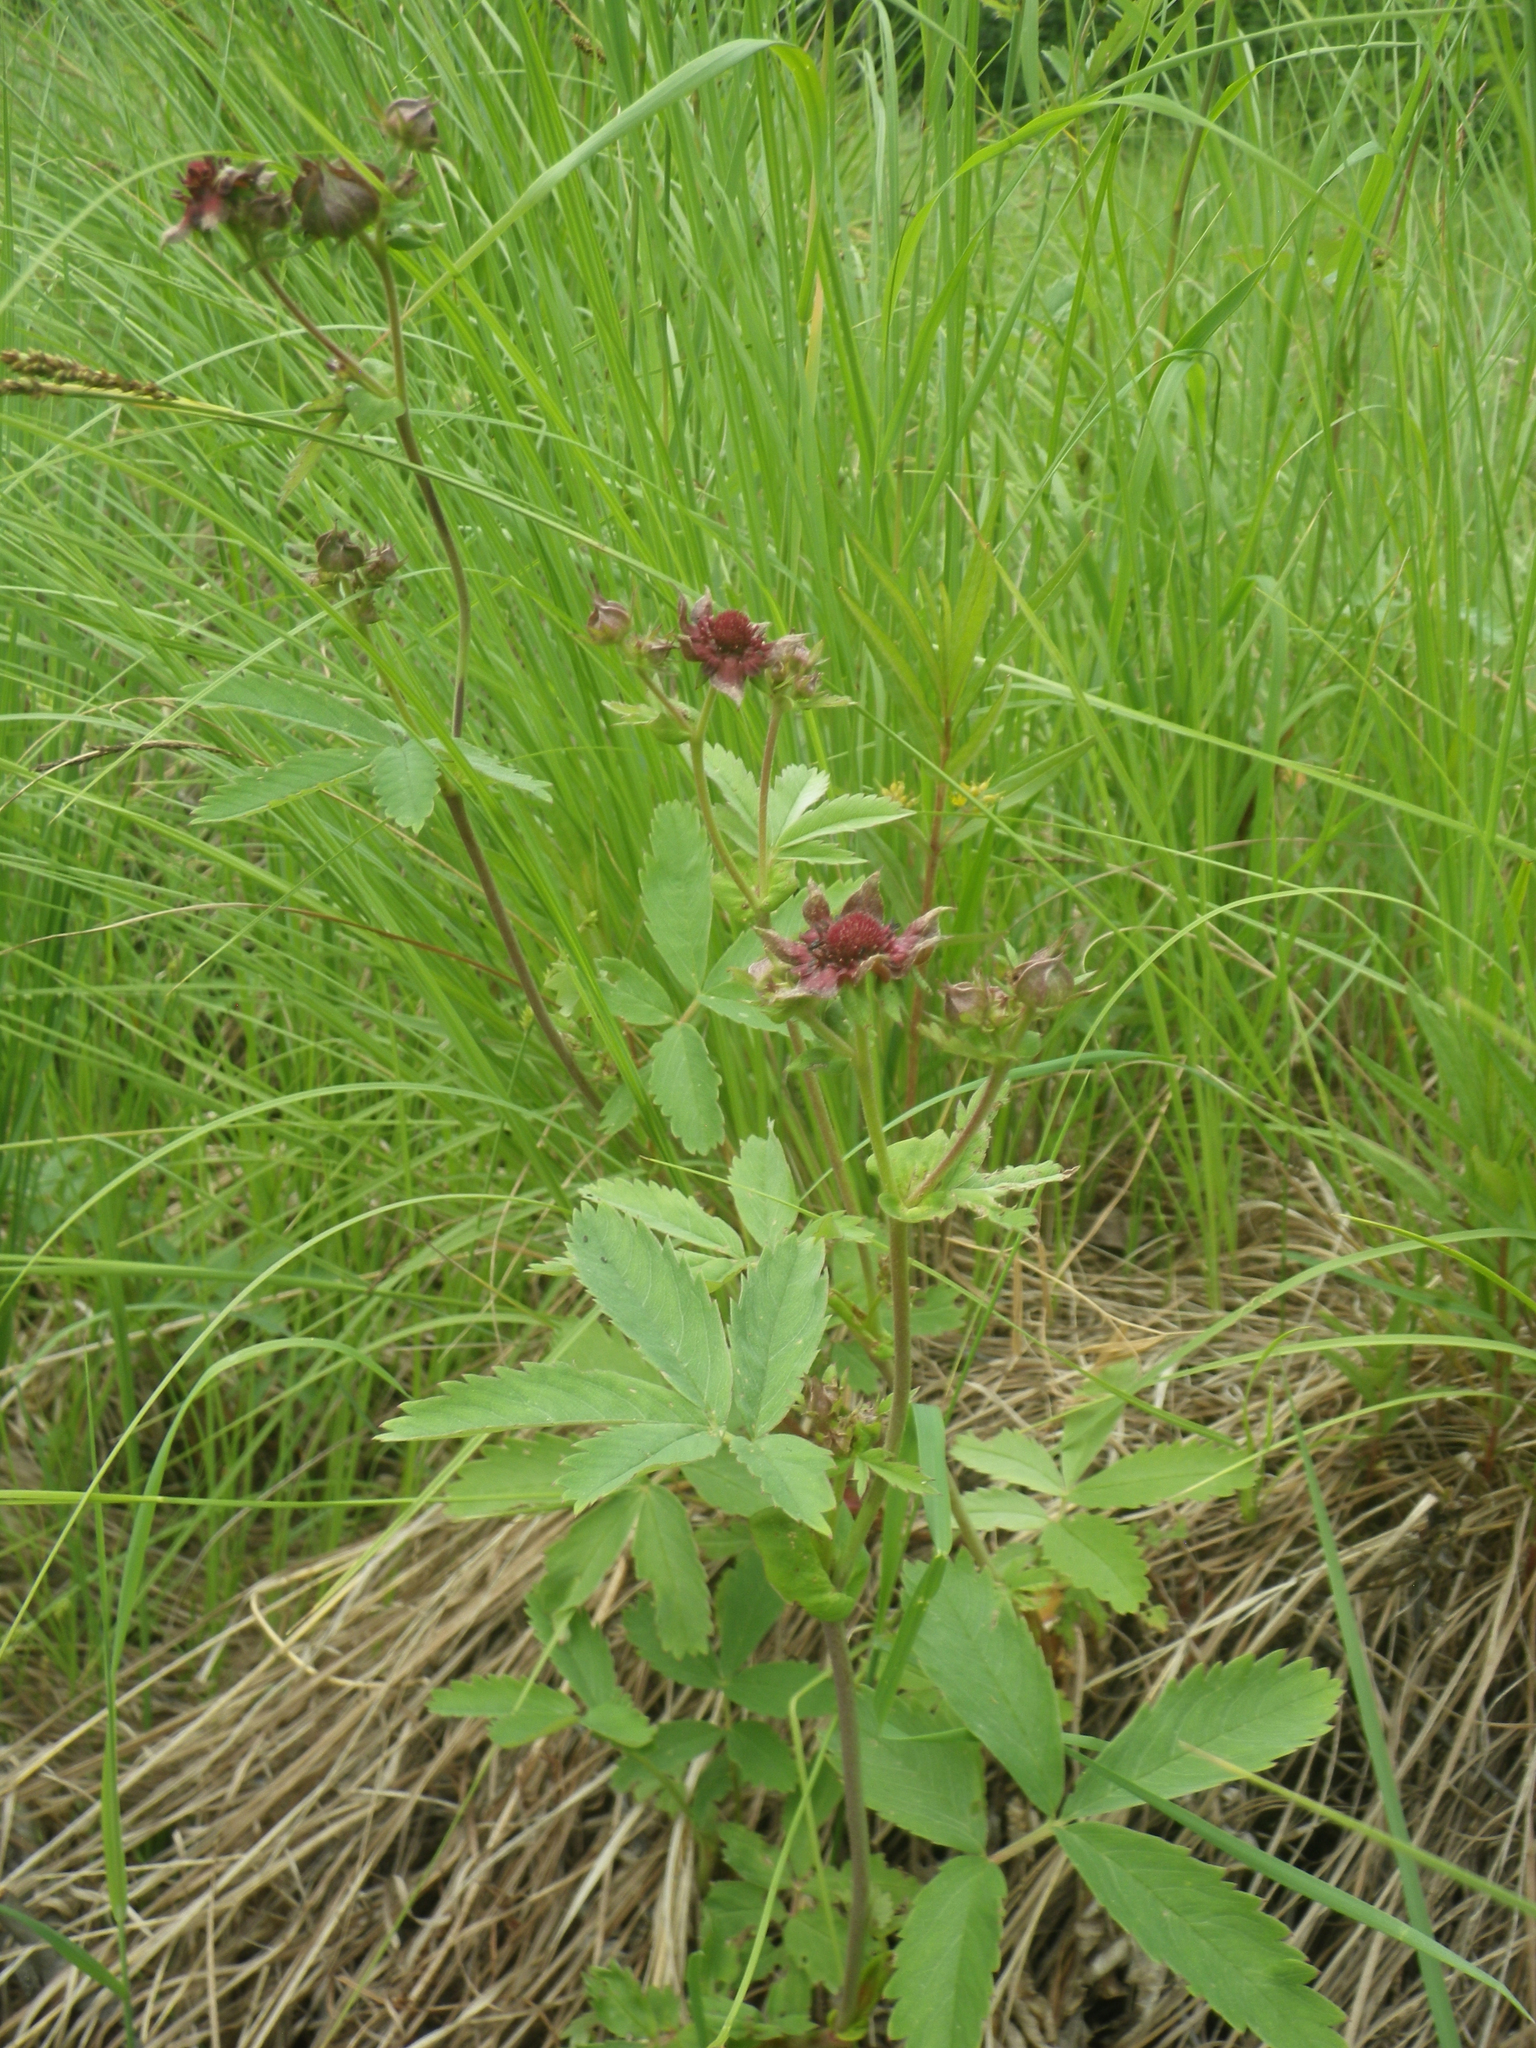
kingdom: Plantae
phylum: Tracheophyta
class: Magnoliopsida
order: Rosales
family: Rosaceae
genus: Comarum
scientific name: Comarum palustre
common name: Marsh cinquefoil
